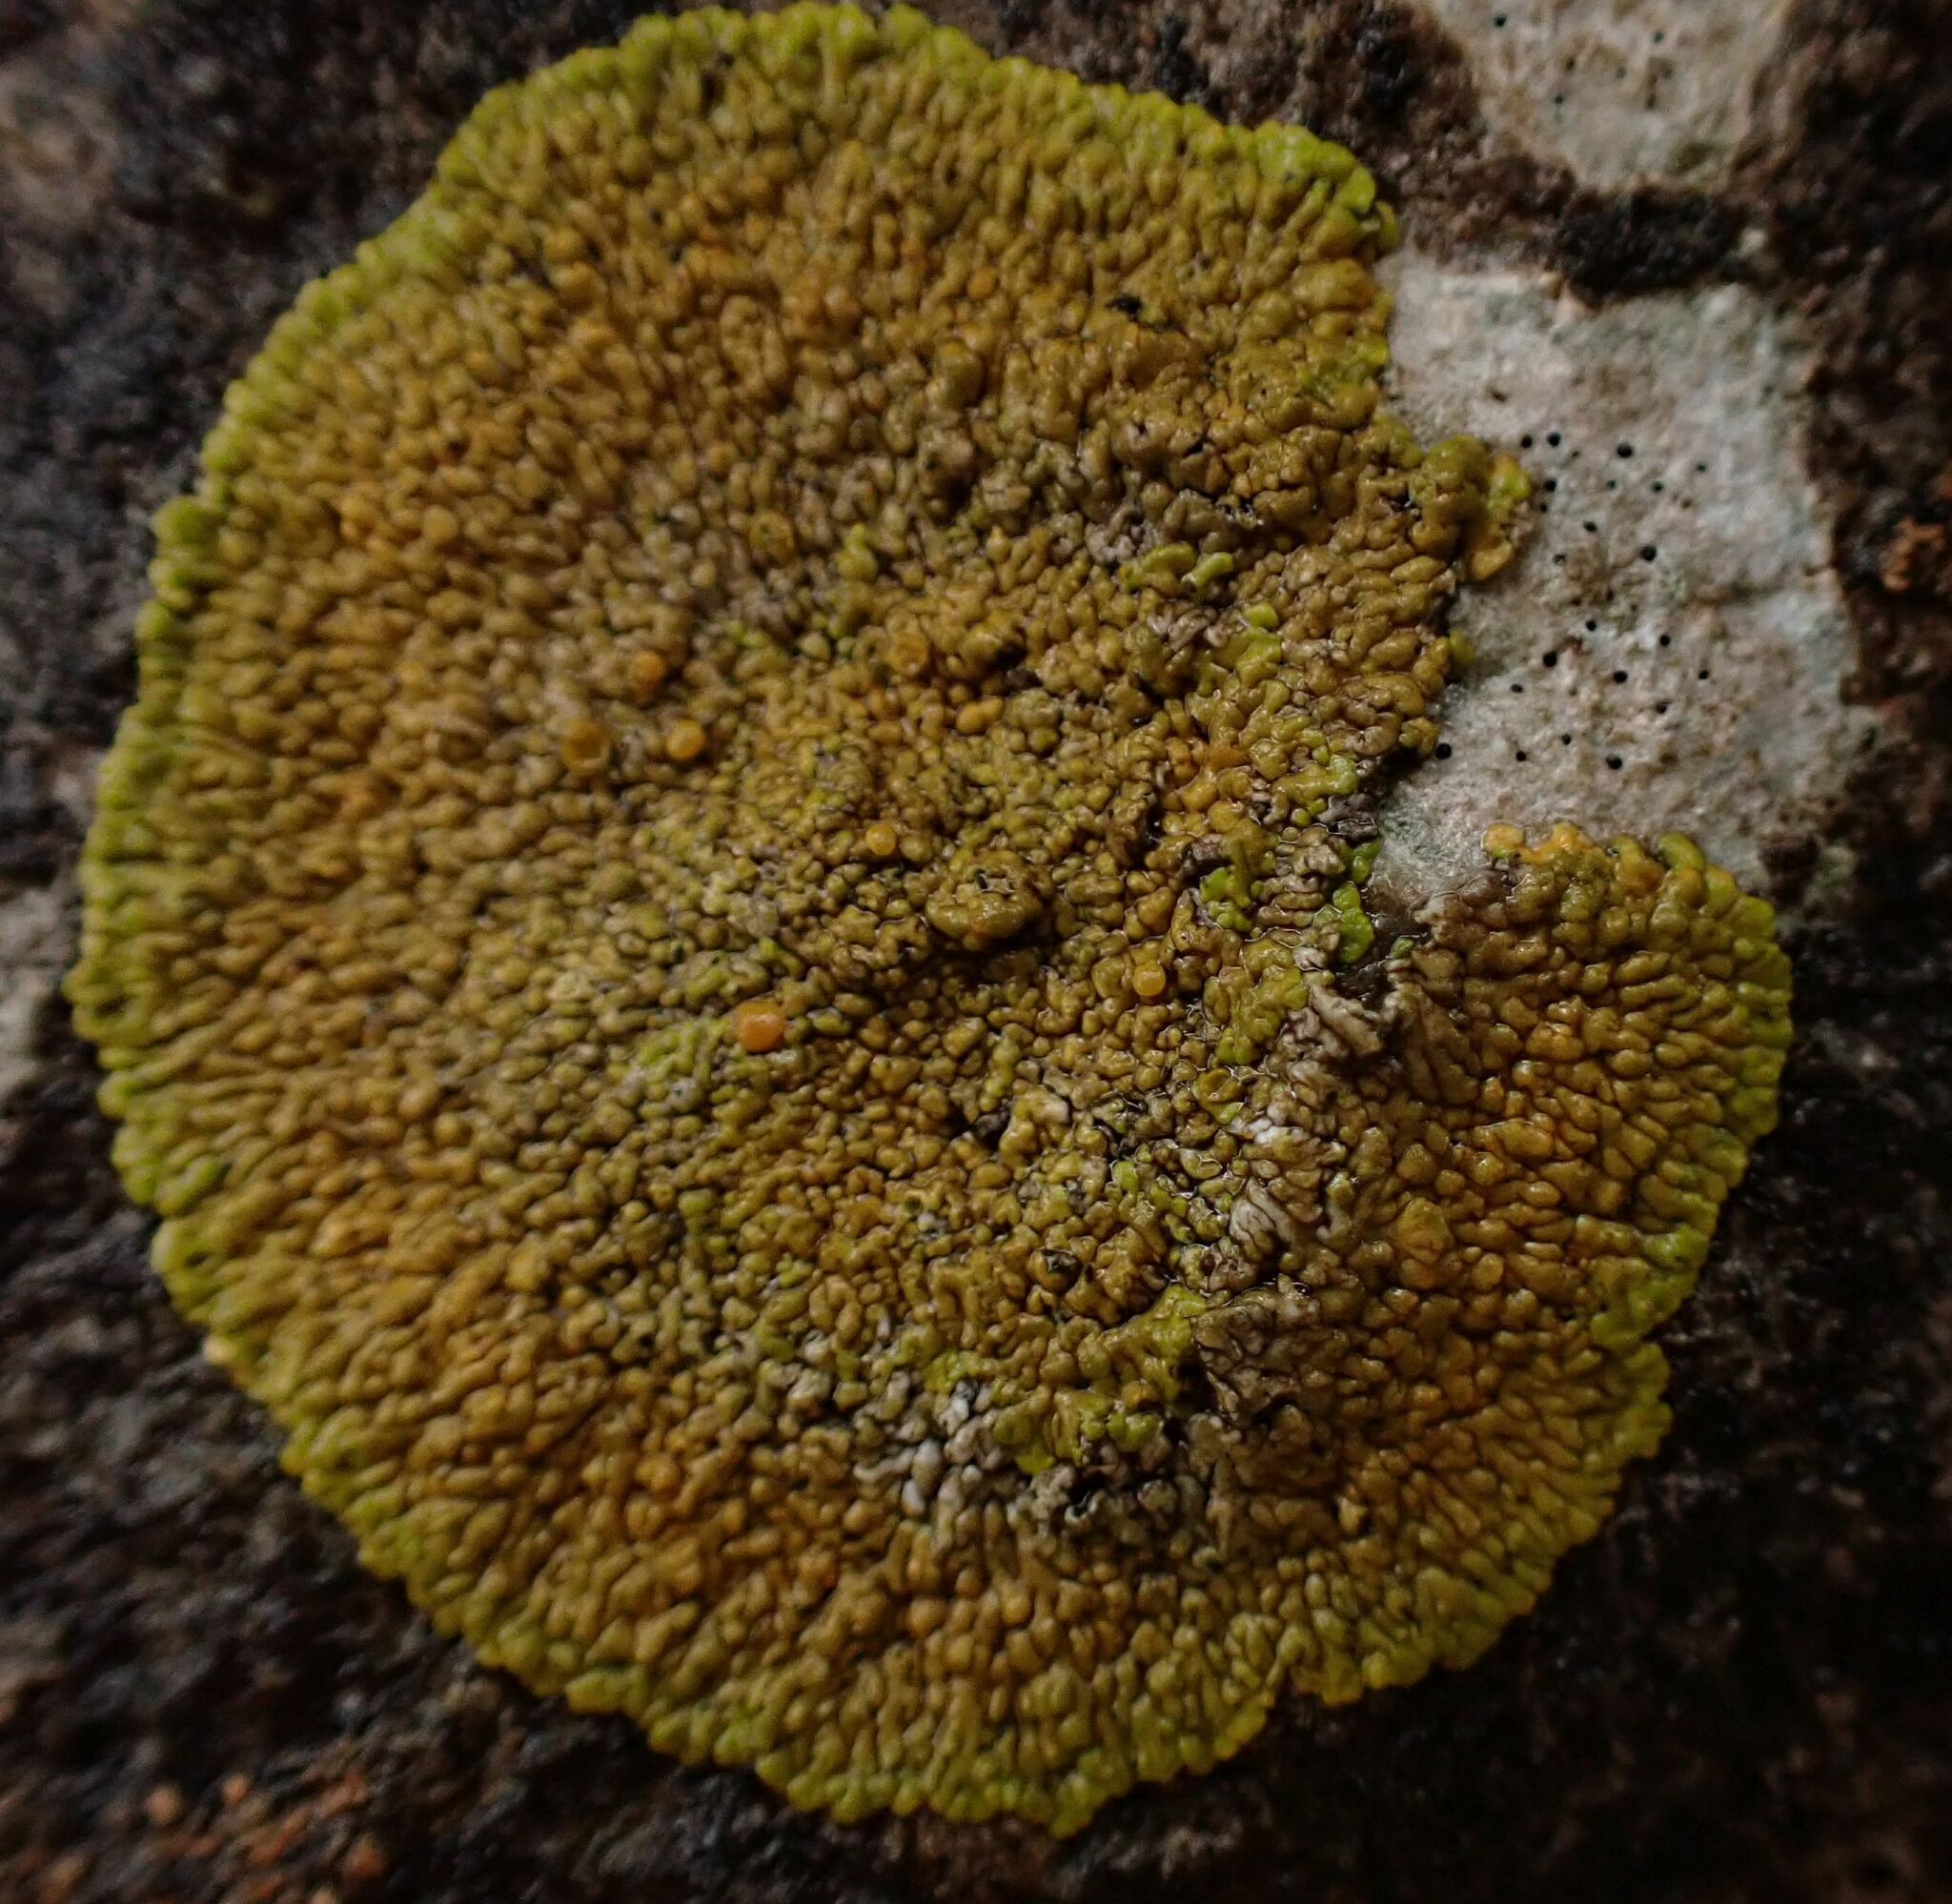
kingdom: Fungi
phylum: Ascomycota
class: Lecanoromycetes
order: Teloschistales
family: Teloschistaceae
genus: Variospora
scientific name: Variospora flavescens
